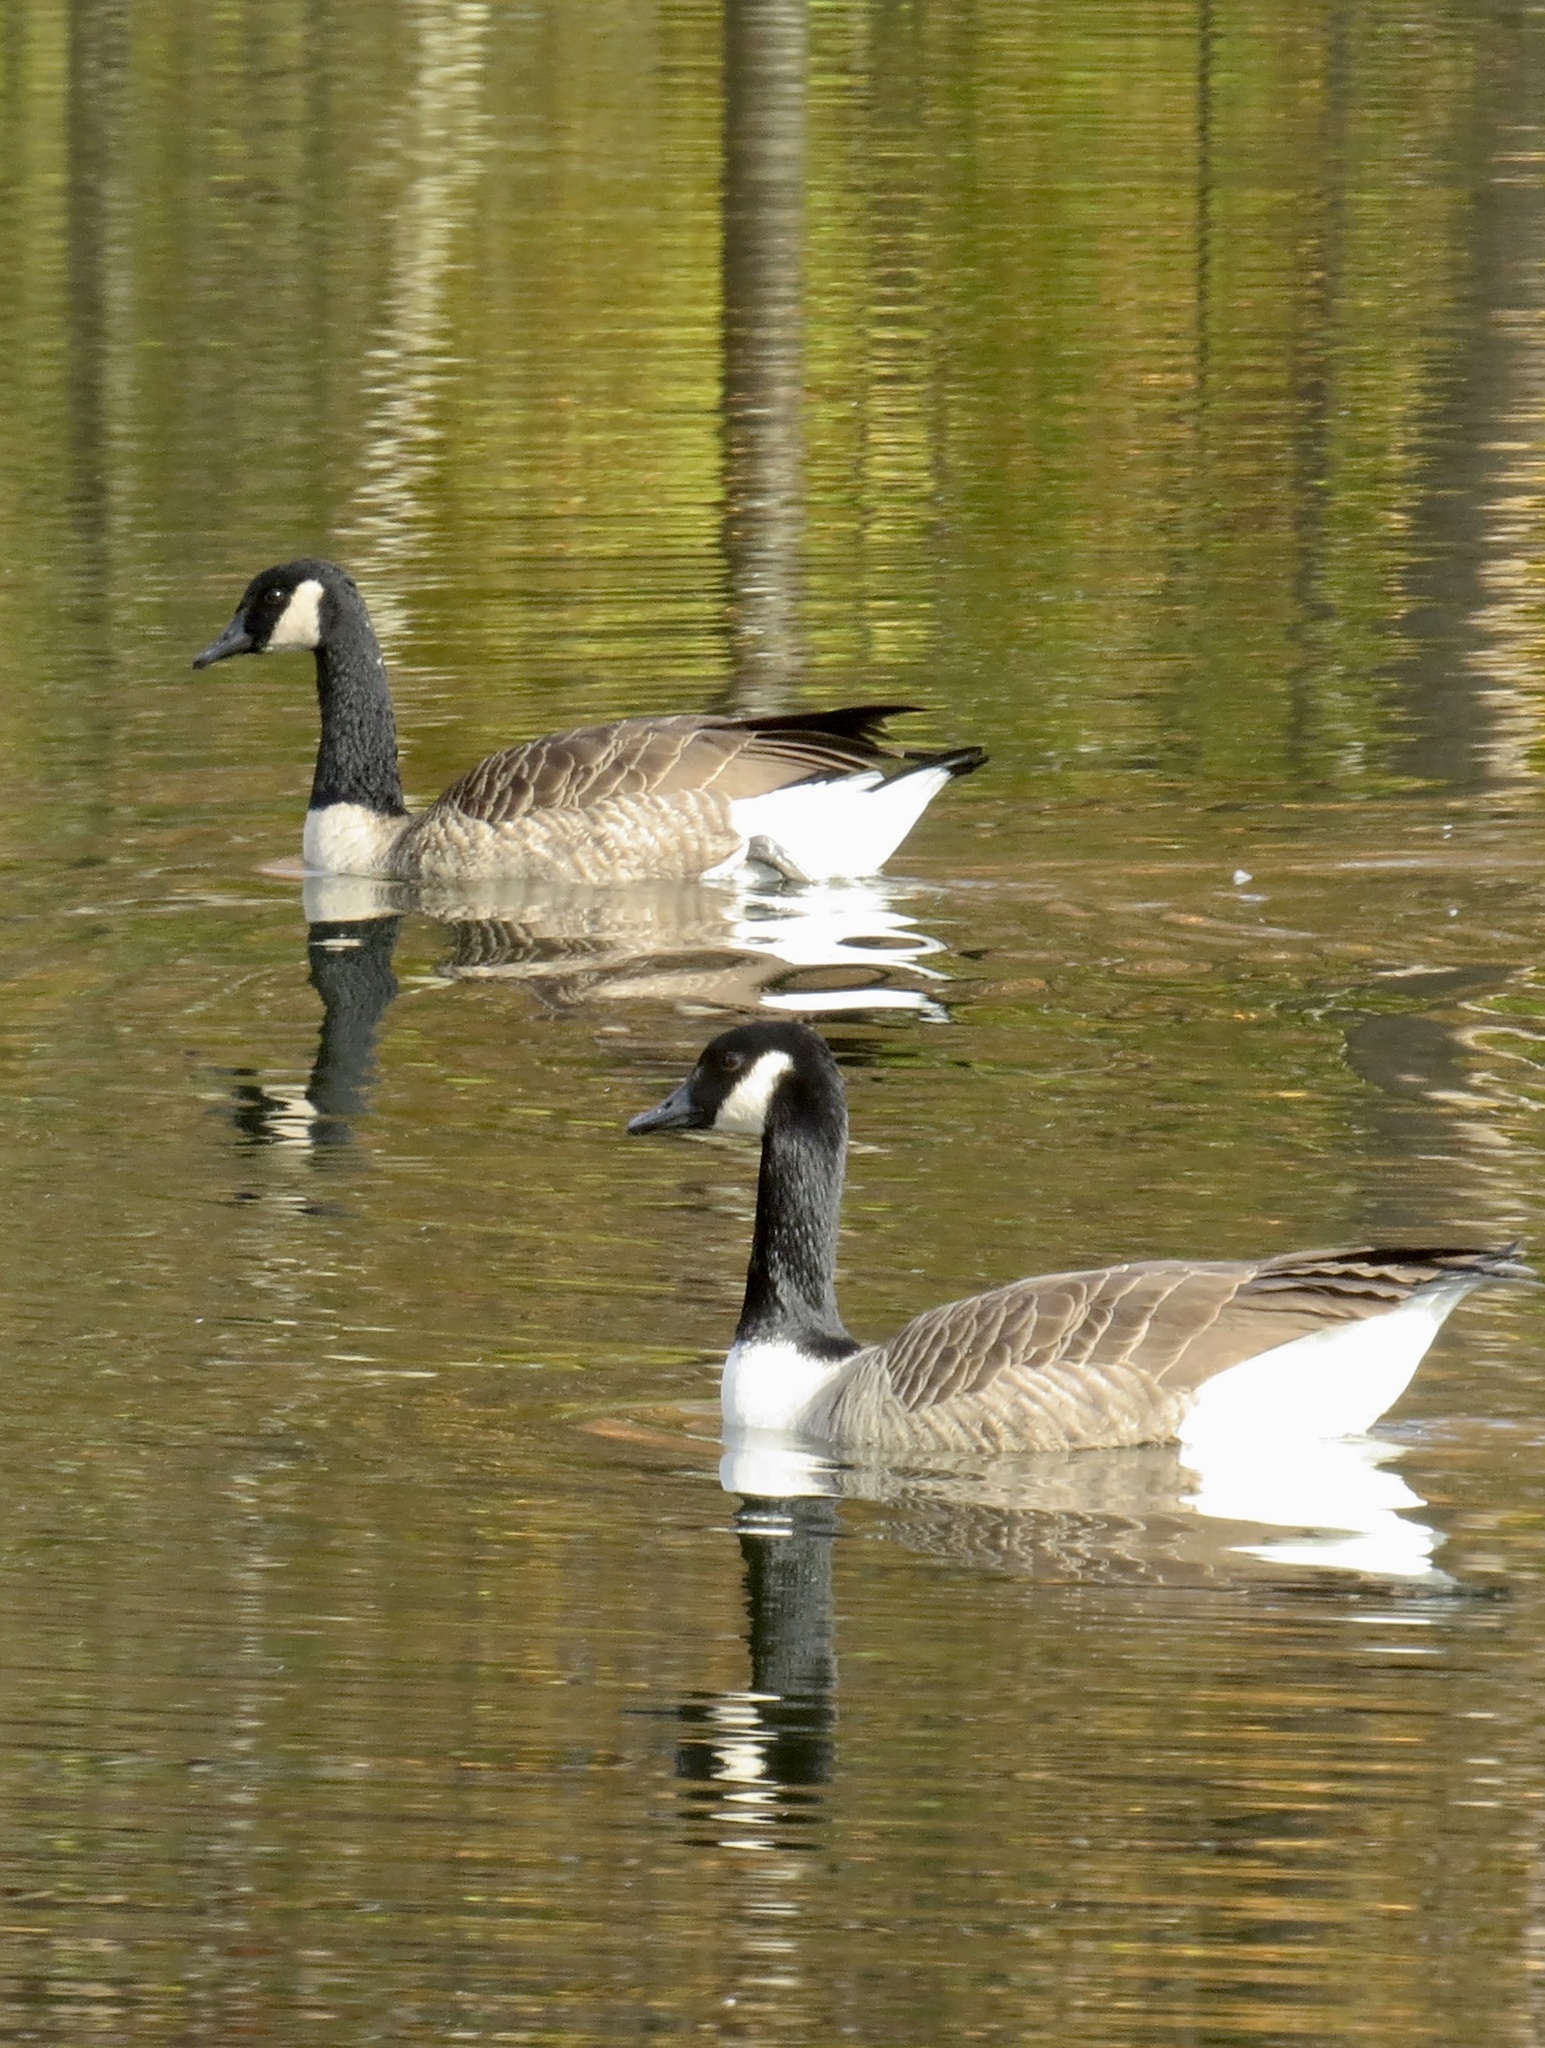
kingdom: Animalia
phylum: Chordata
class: Aves
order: Anseriformes
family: Anatidae
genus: Branta
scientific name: Branta canadensis
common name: Canada goose
